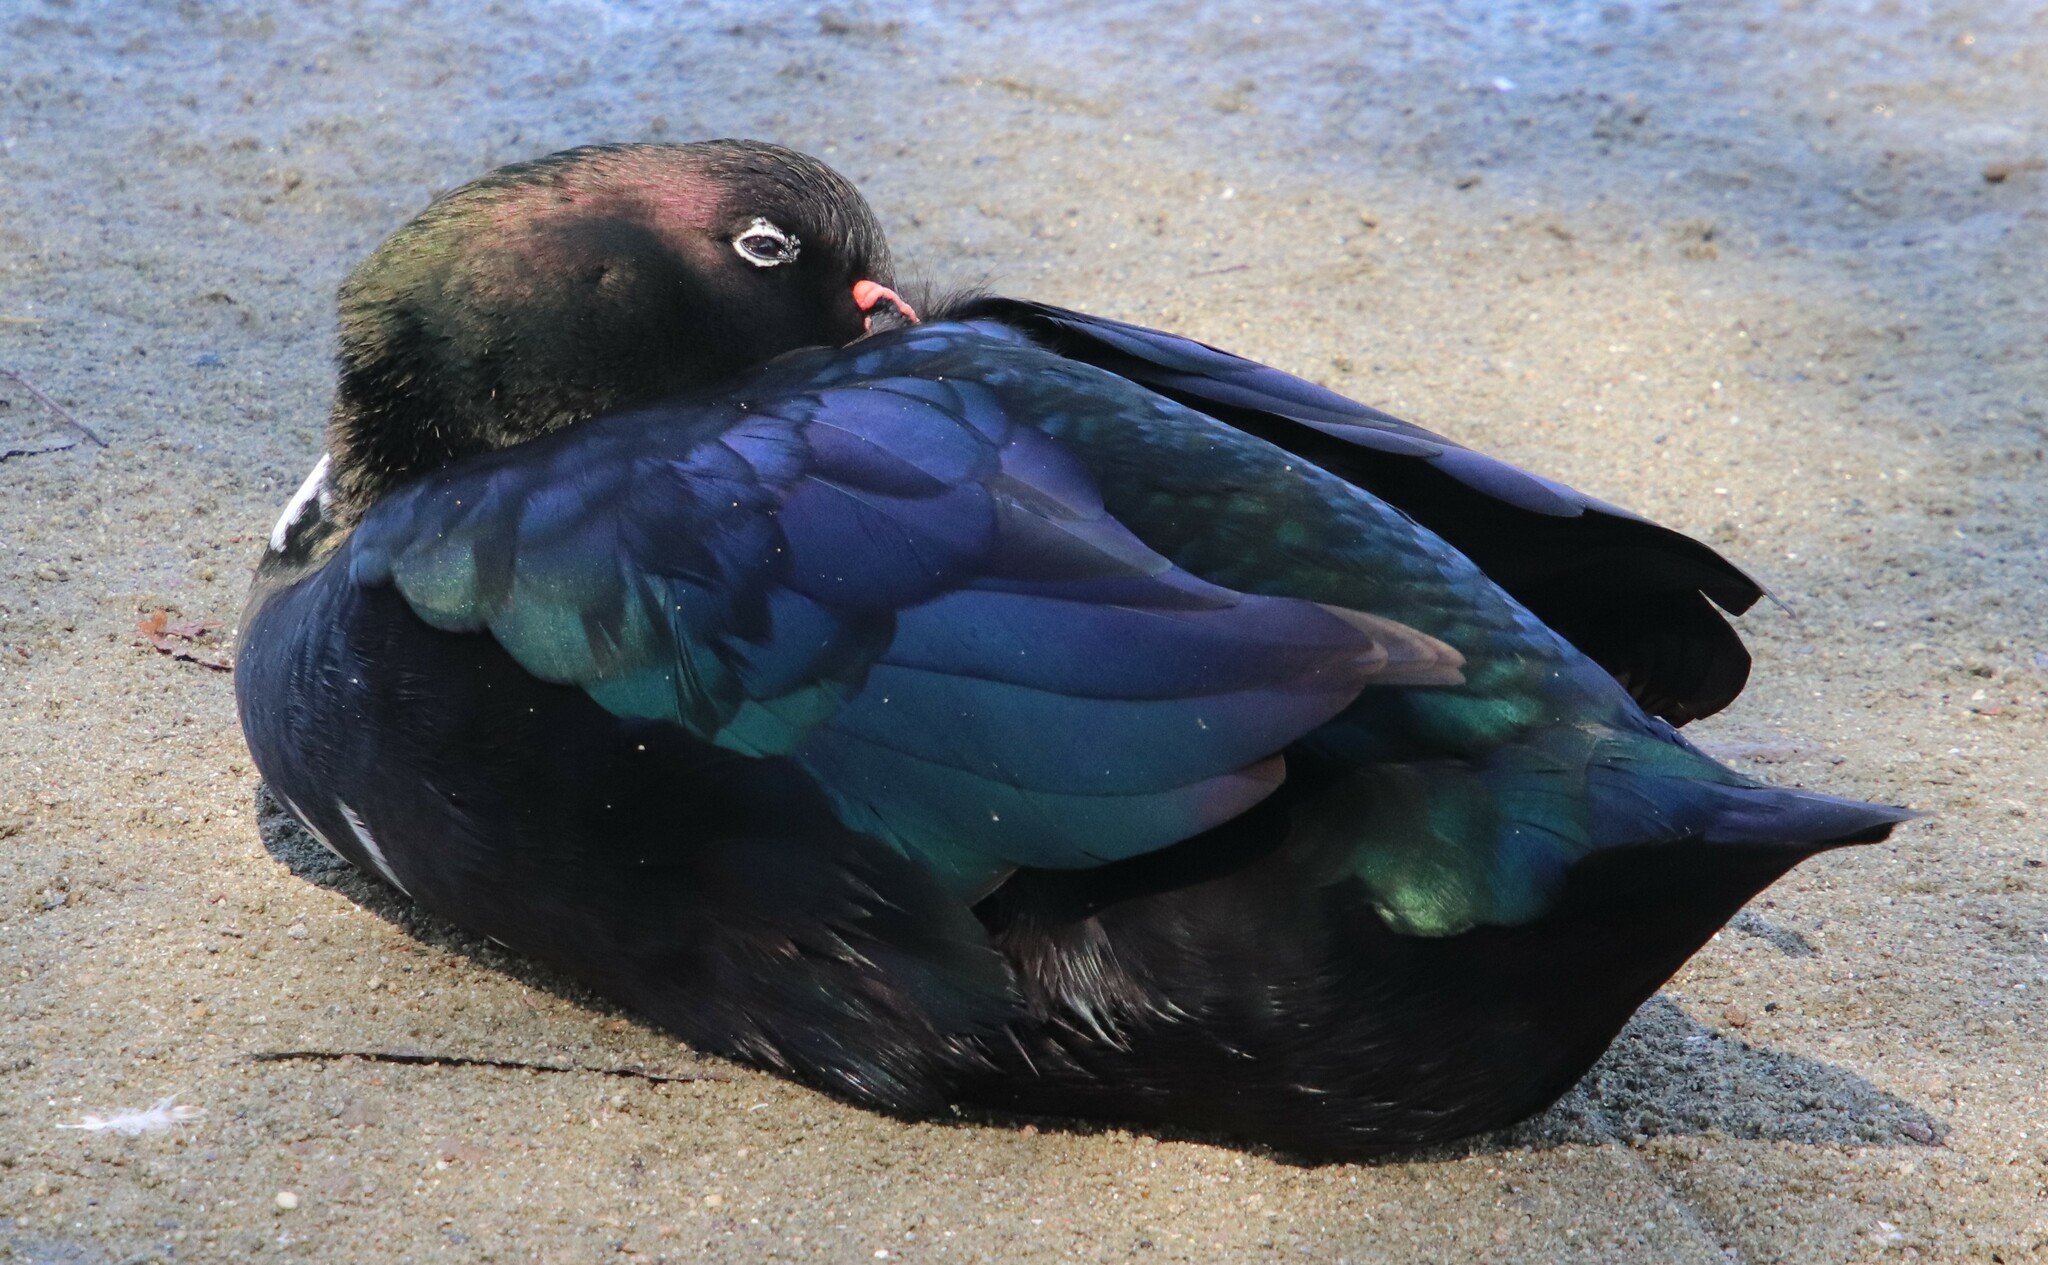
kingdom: Animalia
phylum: Chordata
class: Aves
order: Anseriformes
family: Anatidae
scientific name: Anatidae
